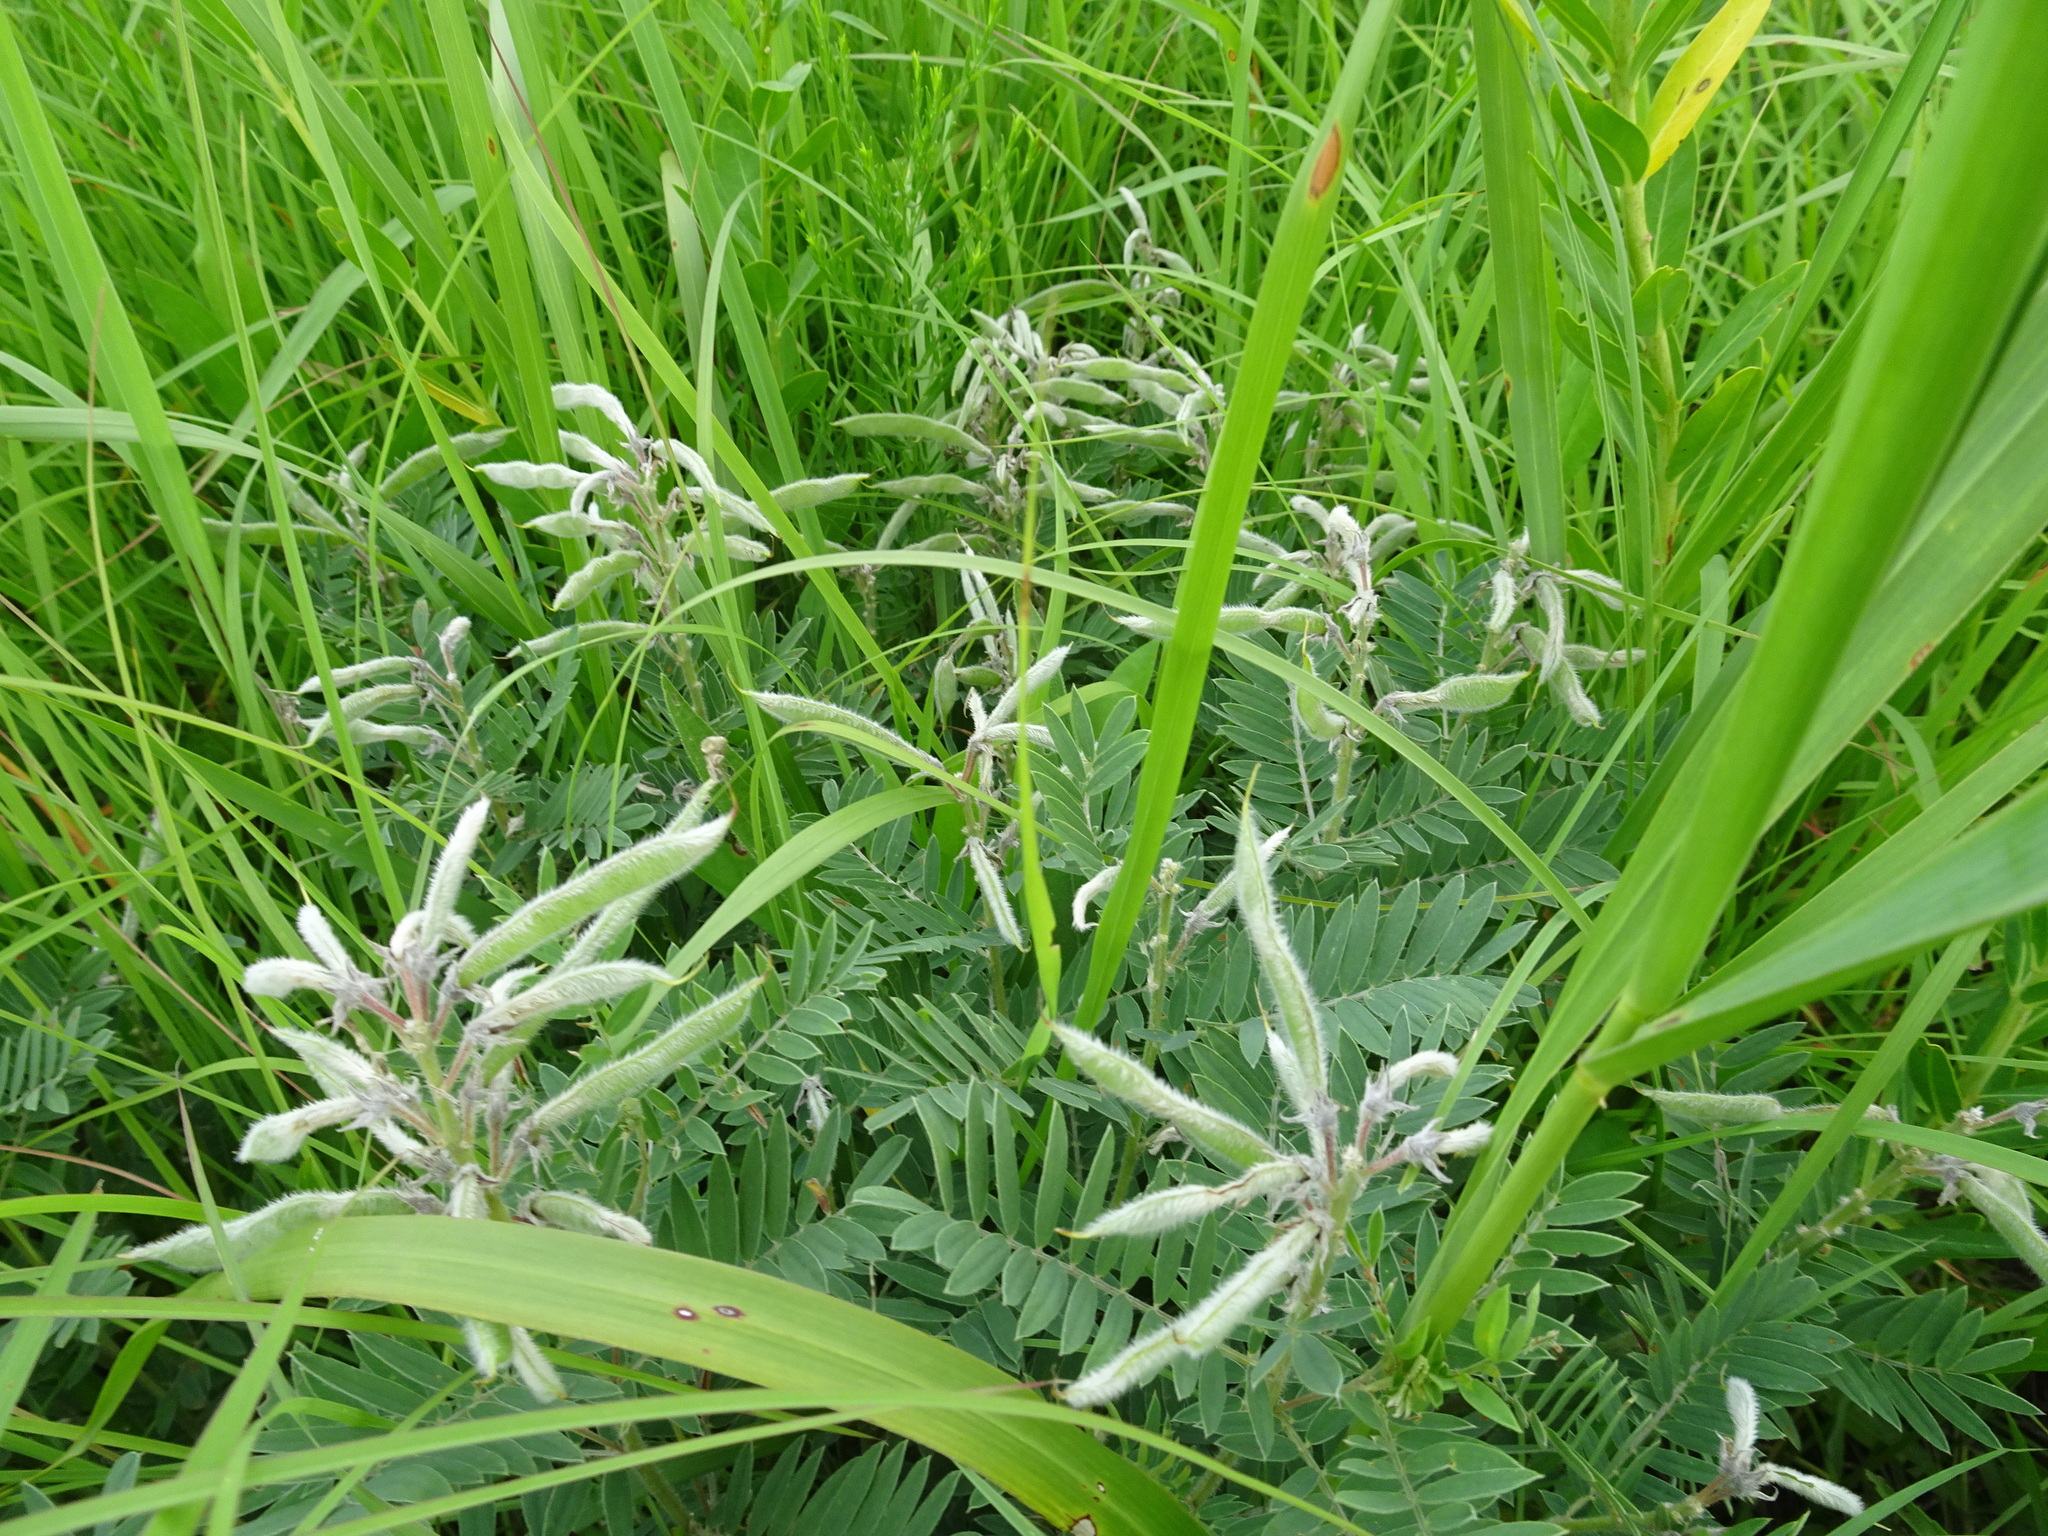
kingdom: Plantae
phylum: Tracheophyta
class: Magnoliopsida
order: Fabales
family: Fabaceae
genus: Tephrosia
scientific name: Tephrosia virginiana
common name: Rabbit-pea
